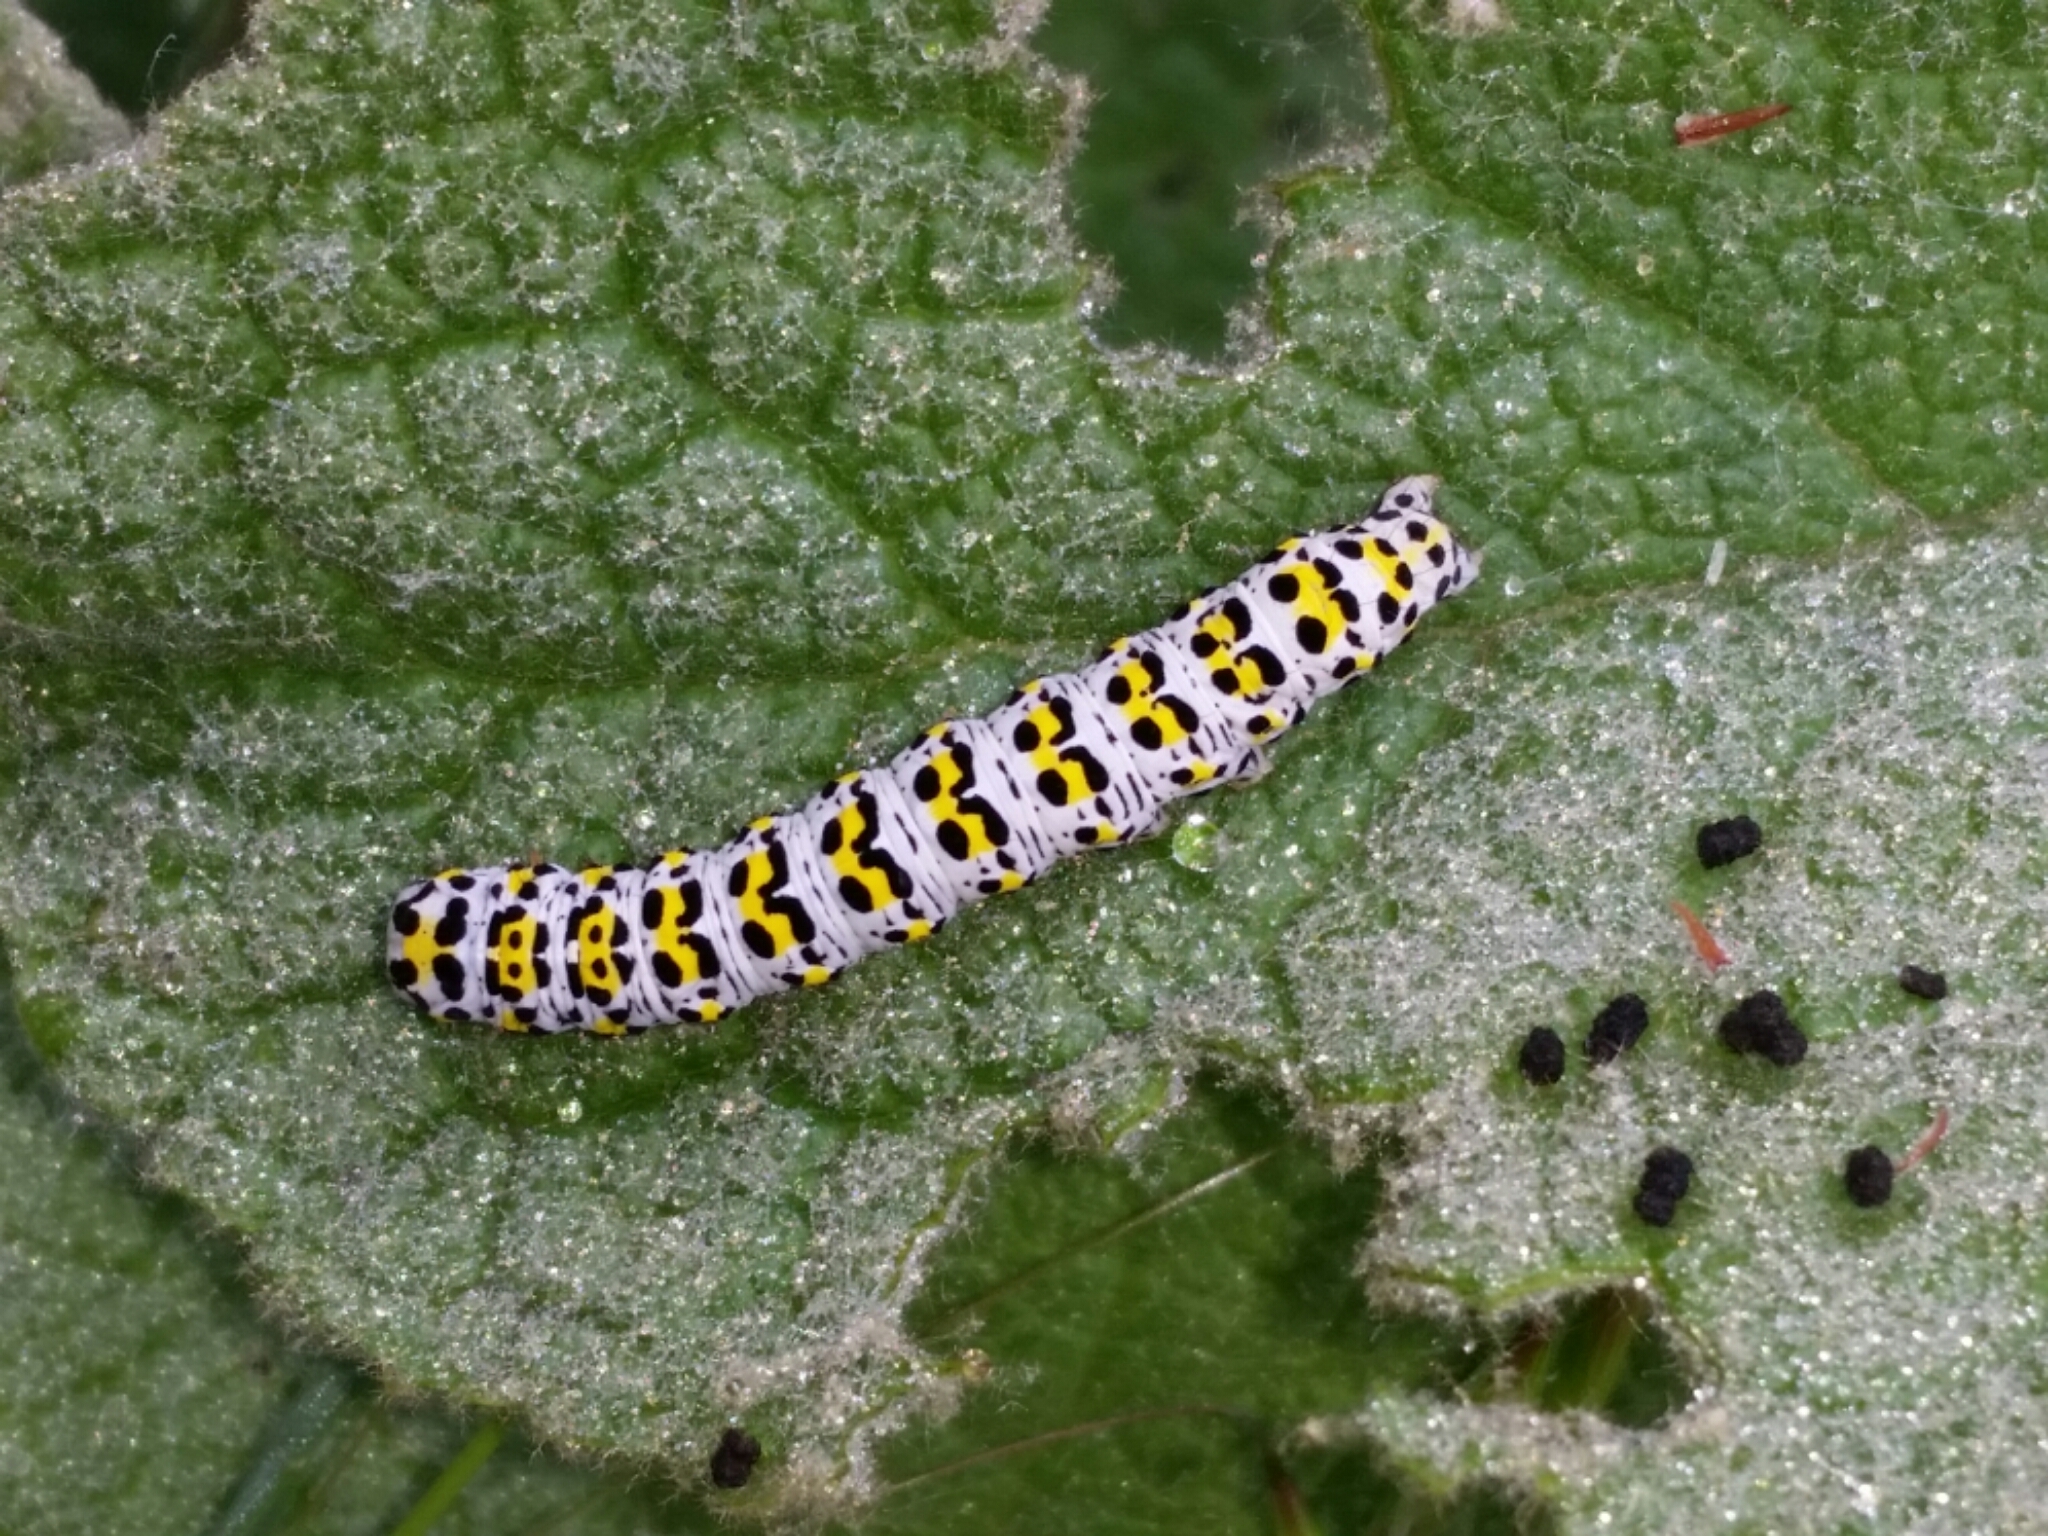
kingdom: Animalia
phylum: Arthropoda
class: Insecta
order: Lepidoptera
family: Noctuidae
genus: Cucullia
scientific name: Cucullia verbasci
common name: Mullein
